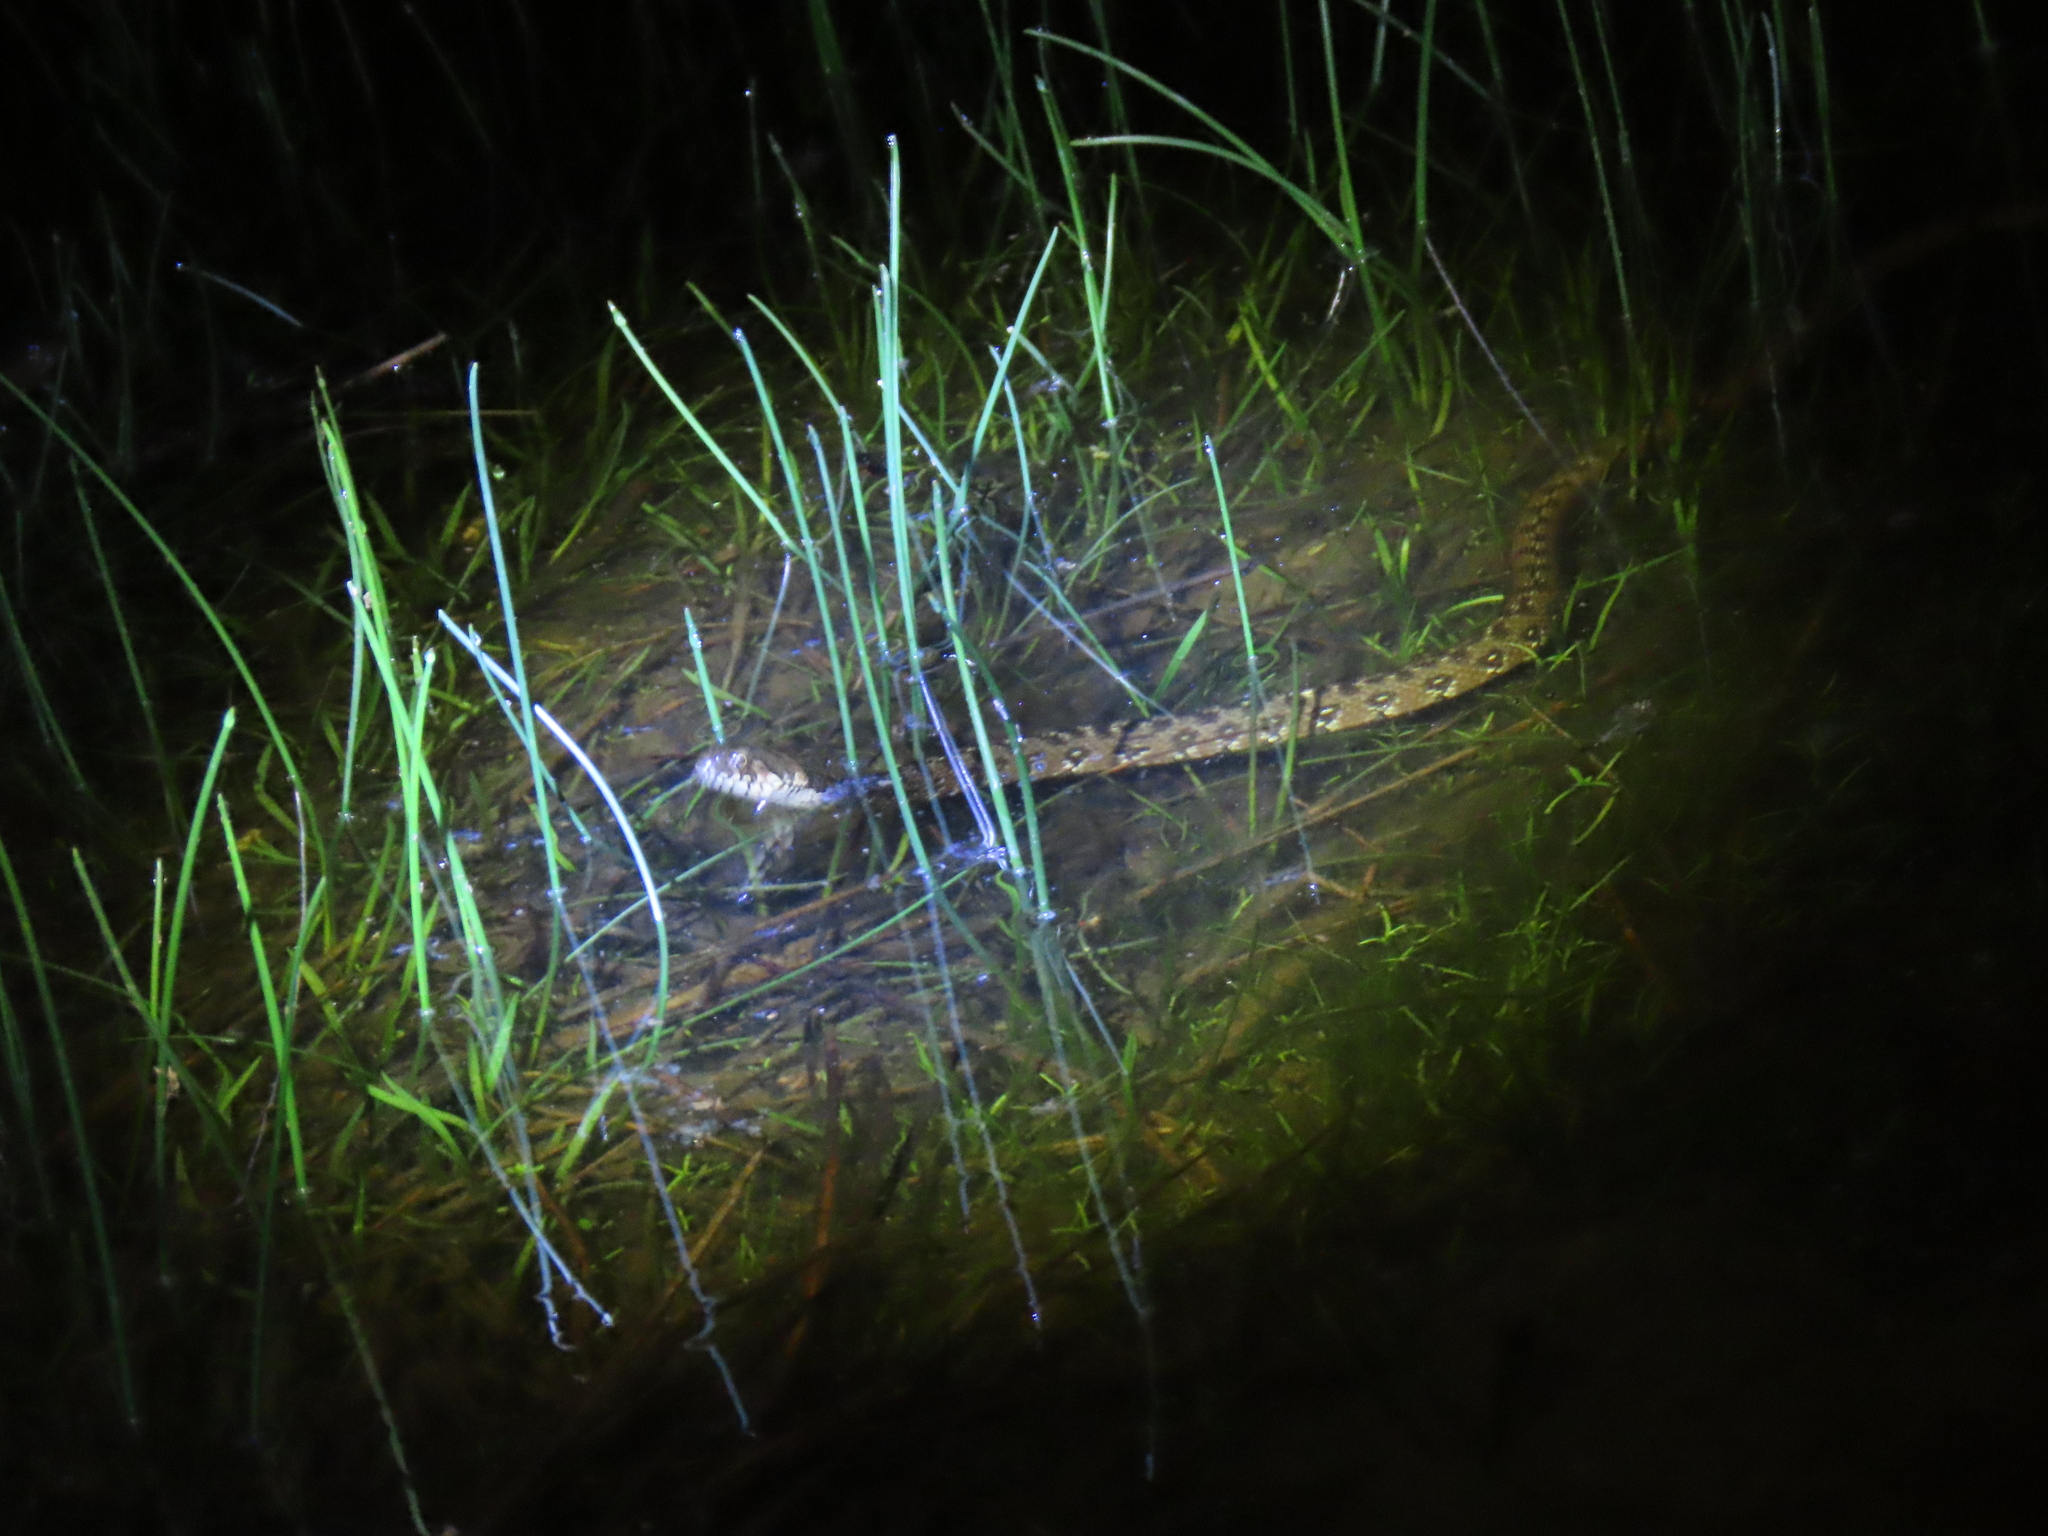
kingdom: Animalia
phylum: Chordata
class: Squamata
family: Colubridae
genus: Natrix
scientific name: Natrix maura
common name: Viperine water snake
